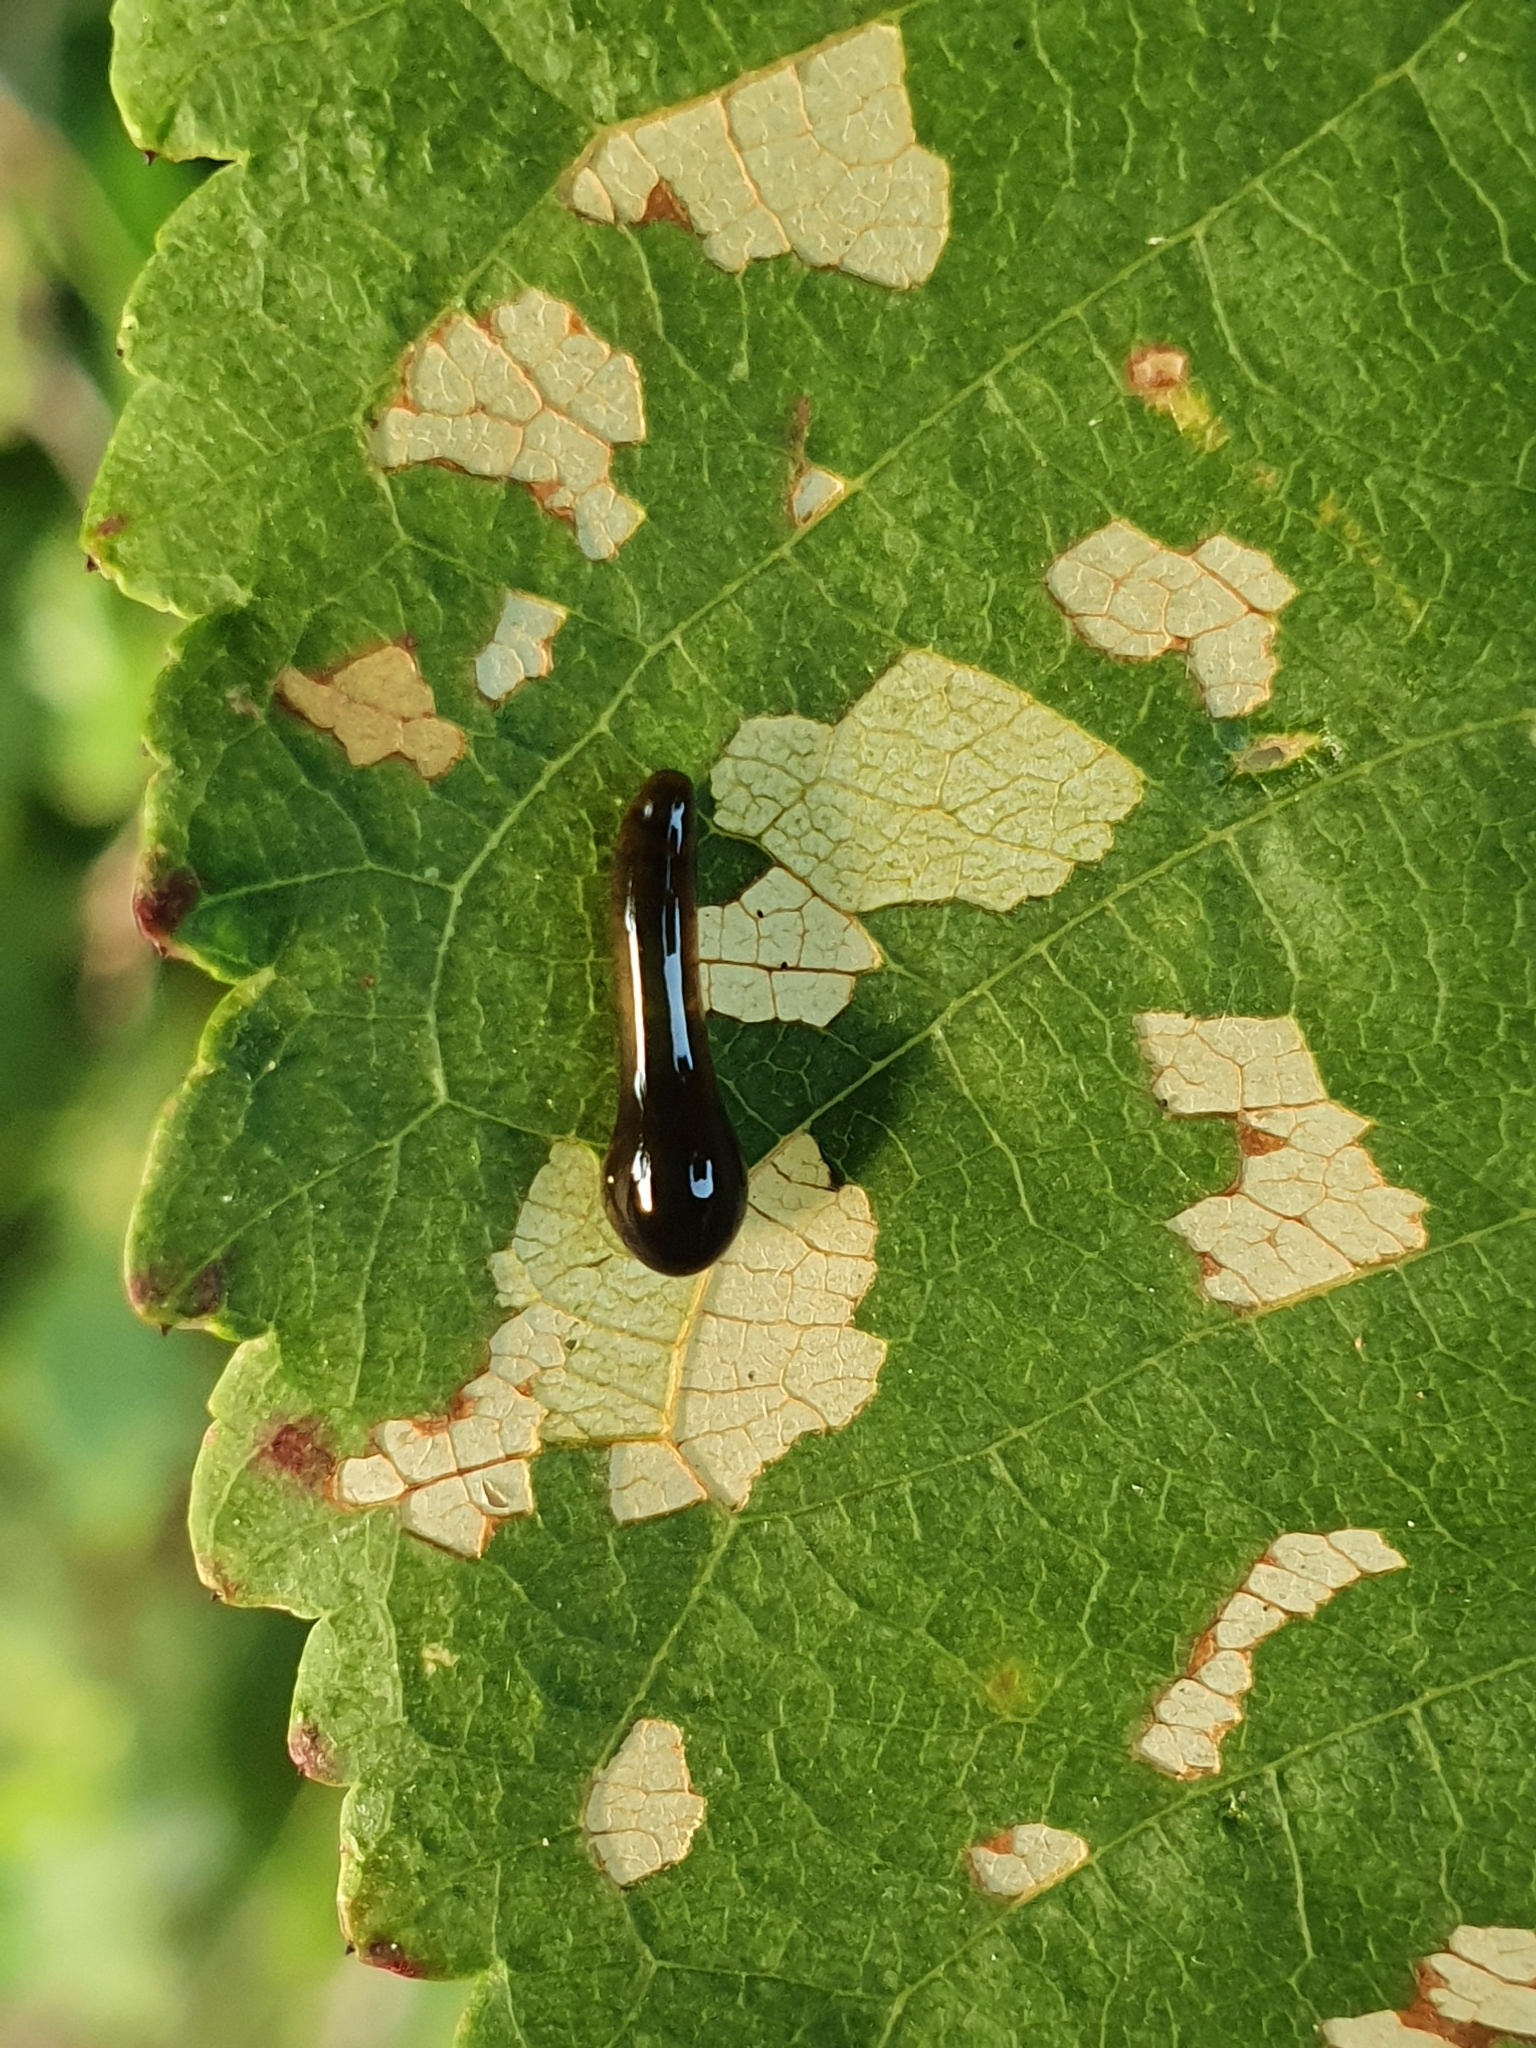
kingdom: Animalia
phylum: Arthropoda
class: Insecta
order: Hymenoptera
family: Tenthredinidae
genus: Caliroa
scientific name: Caliroa cerasi
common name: Pear sawfly
